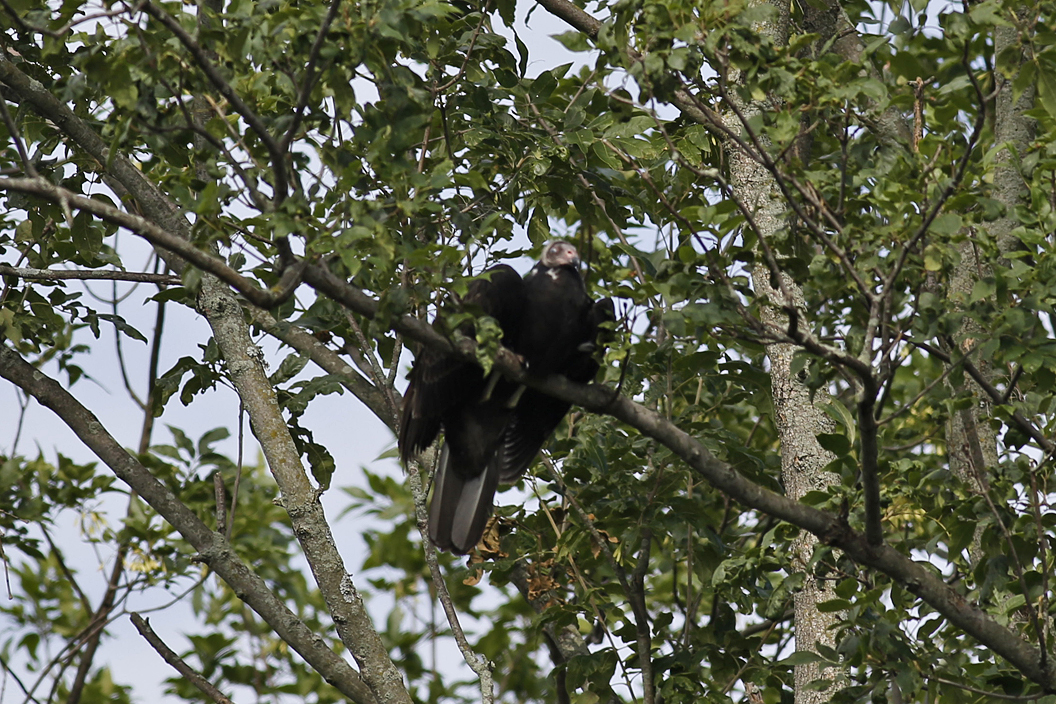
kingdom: Animalia
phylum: Chordata
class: Aves
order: Accipitriformes
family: Cathartidae
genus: Cathartes
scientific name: Cathartes aura
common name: Turkey vulture
